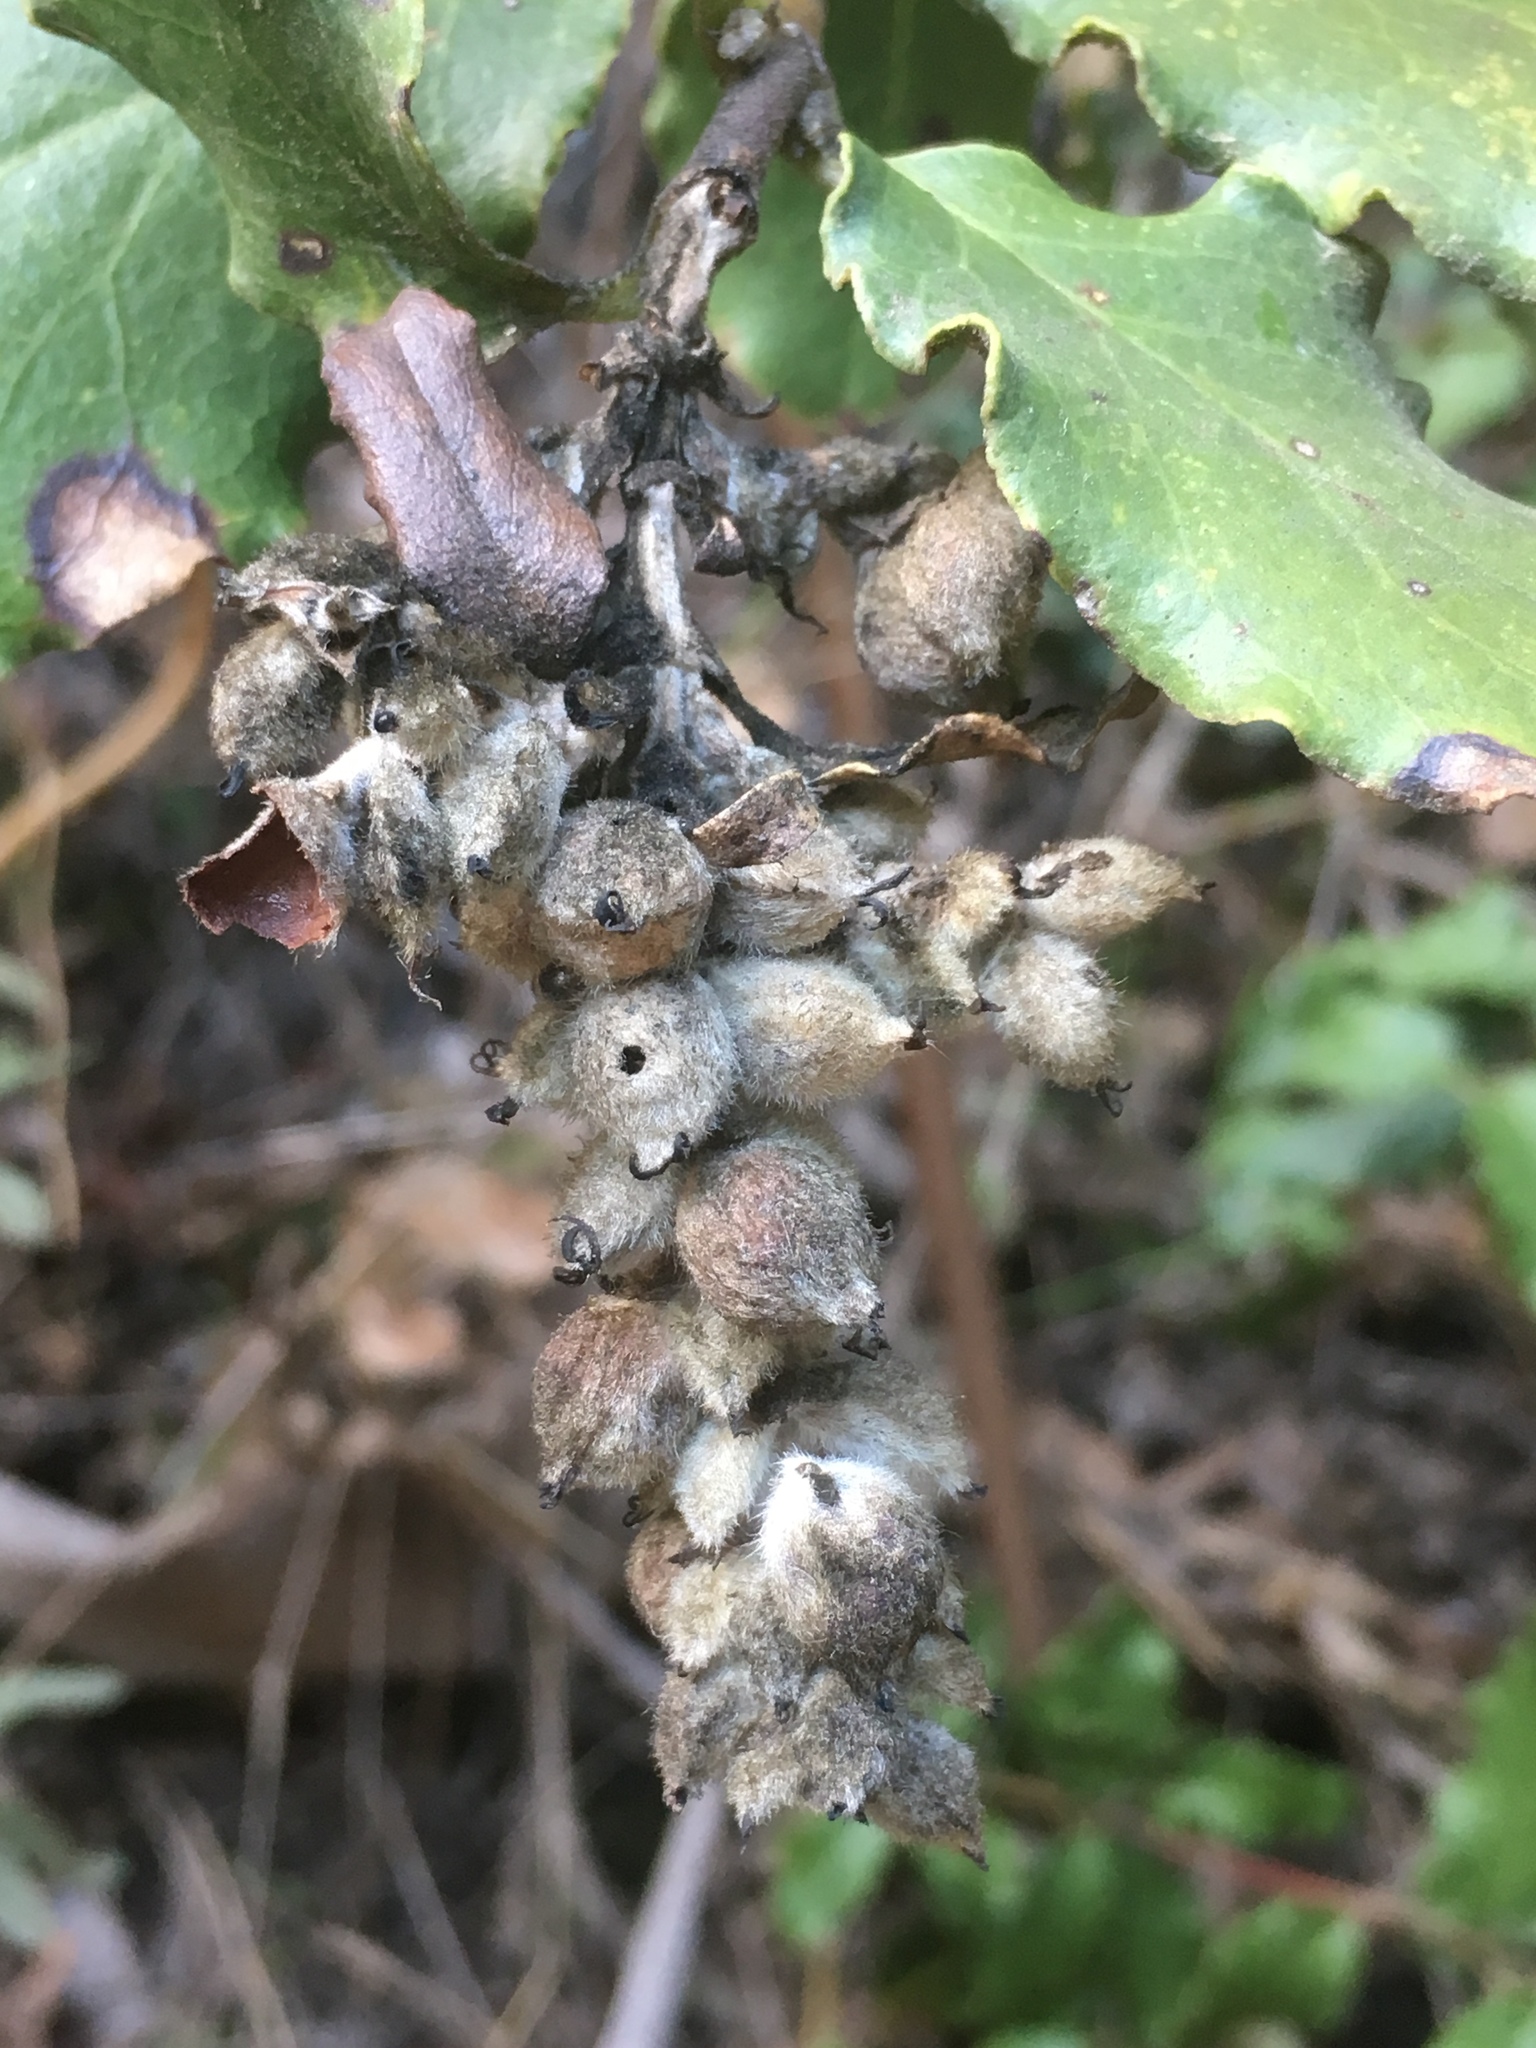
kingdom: Plantae
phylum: Tracheophyta
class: Magnoliopsida
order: Garryales
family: Garryaceae
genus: Garrya
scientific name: Garrya elliptica
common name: Silk-tassel
